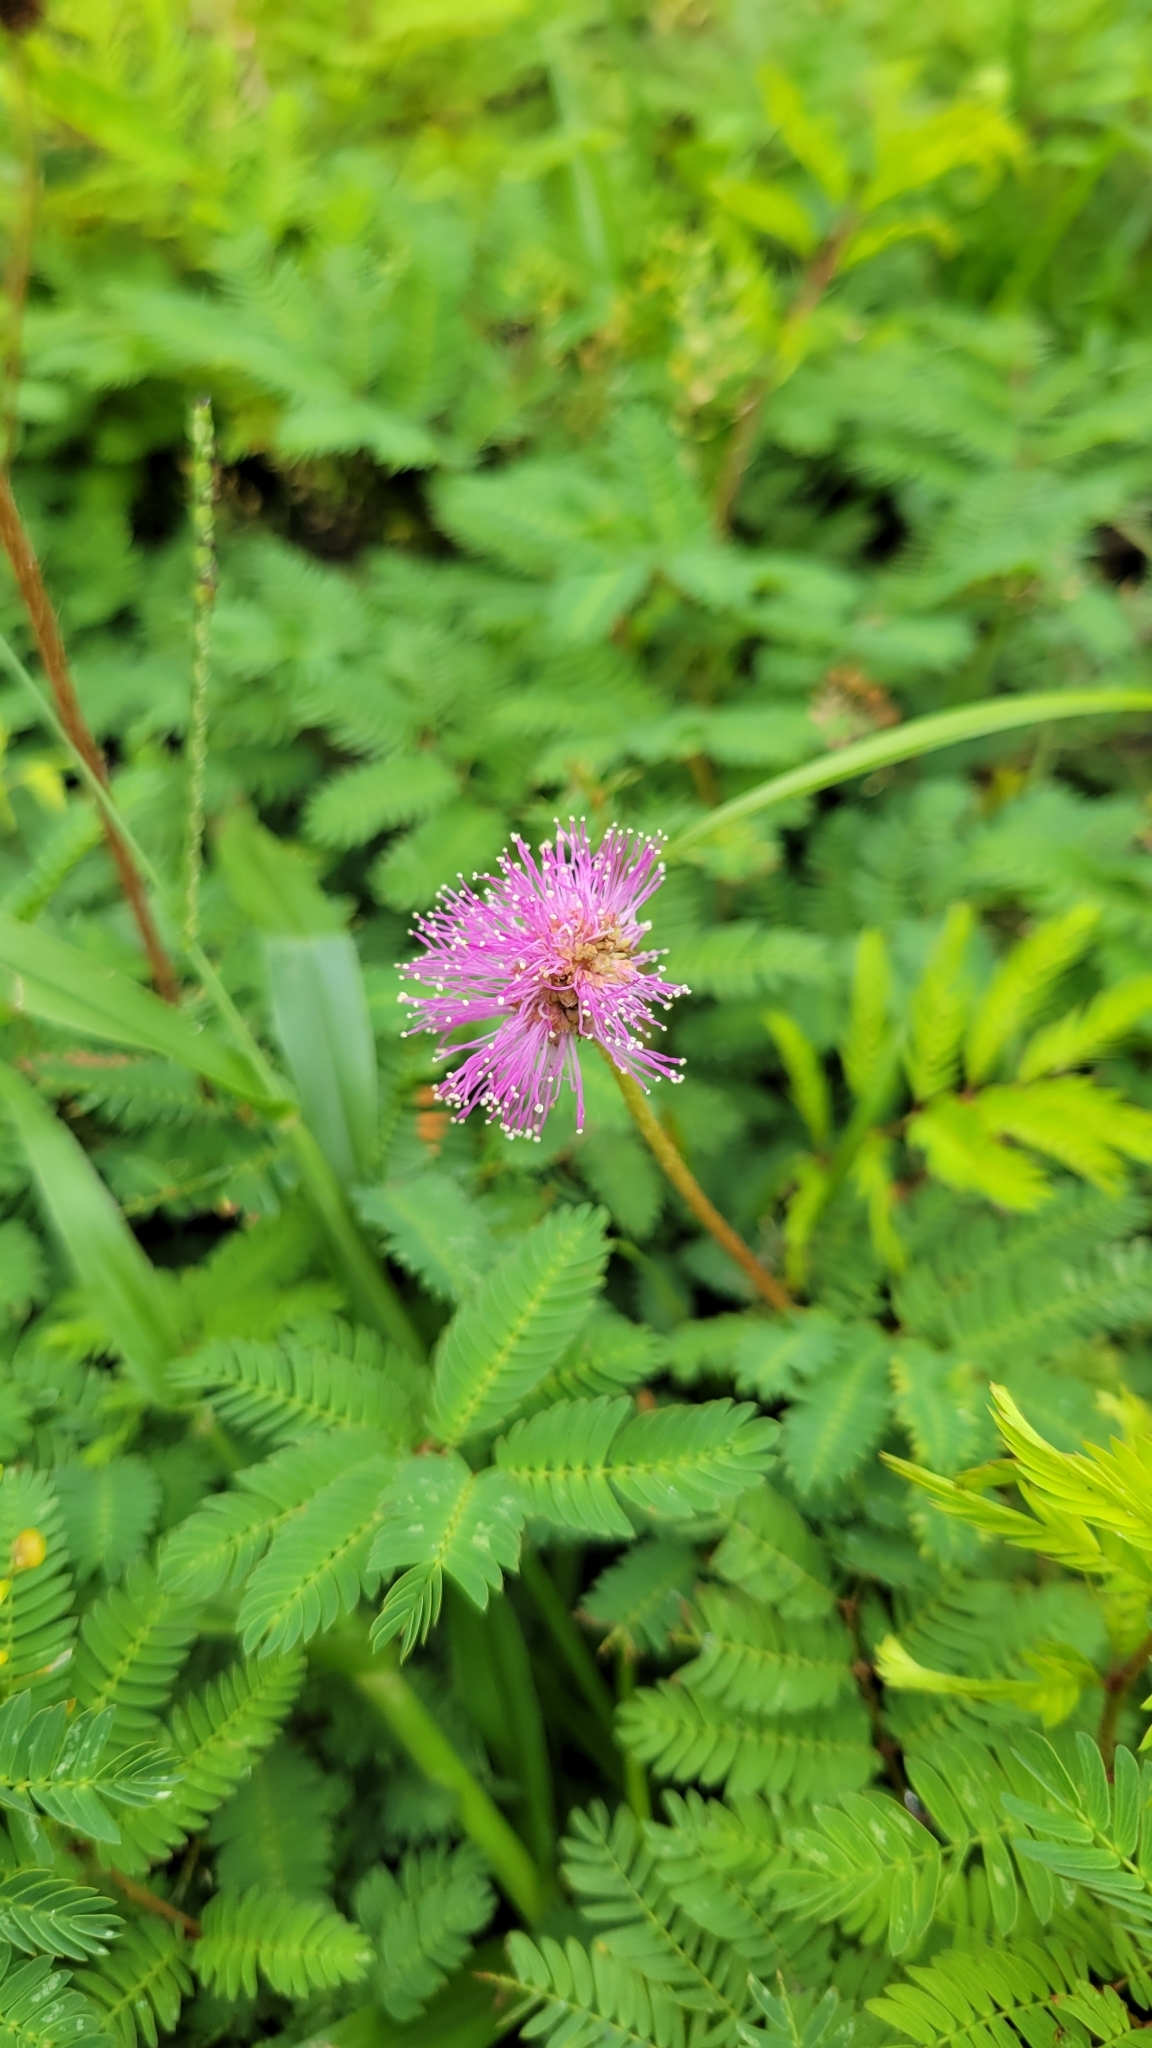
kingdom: Plantae
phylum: Tracheophyta
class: Magnoliopsida
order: Fabales
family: Fabaceae
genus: Mimosa
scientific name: Mimosa strigillosa
